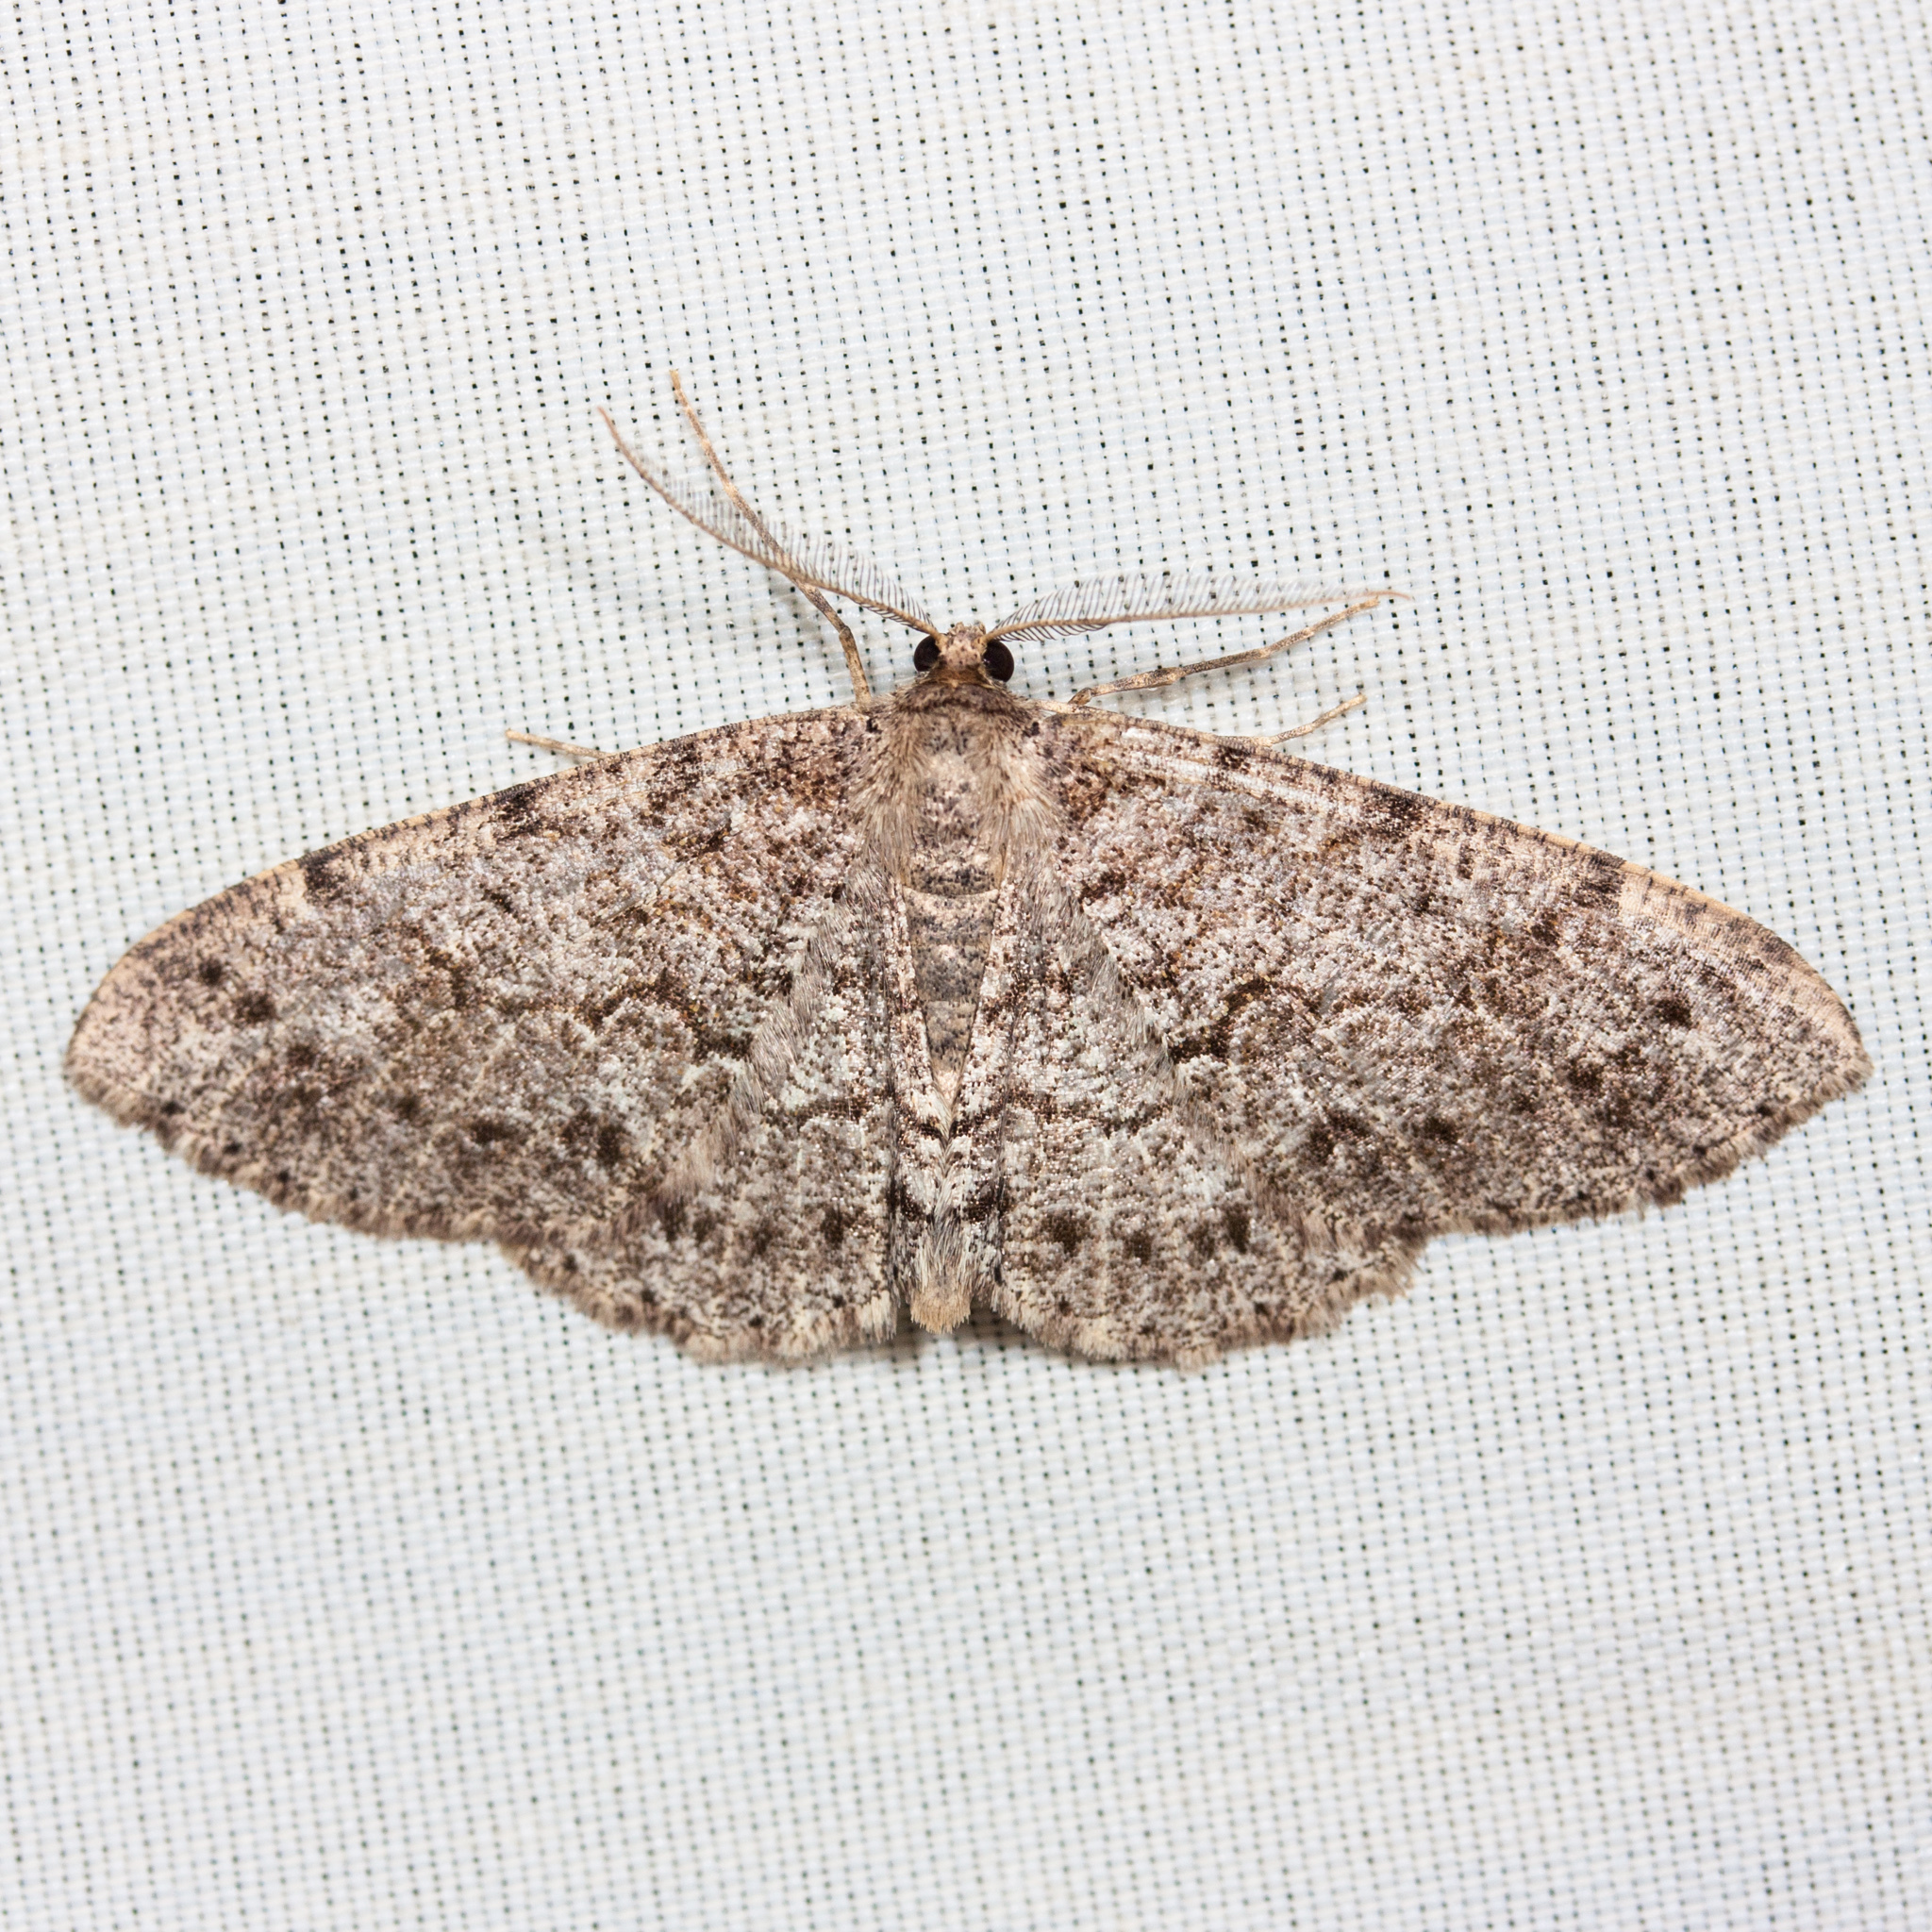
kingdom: Animalia
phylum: Arthropoda
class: Insecta
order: Lepidoptera
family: Geometridae
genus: Melanolophia
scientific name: Melanolophia imitata
